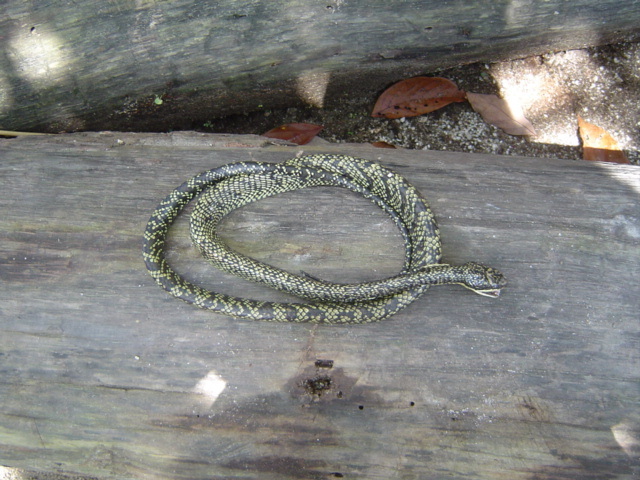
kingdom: Animalia
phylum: Chordata
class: Squamata
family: Colubridae
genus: Phrynonax
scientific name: Phrynonax shropshirei
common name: Shropshire's puffing snake
